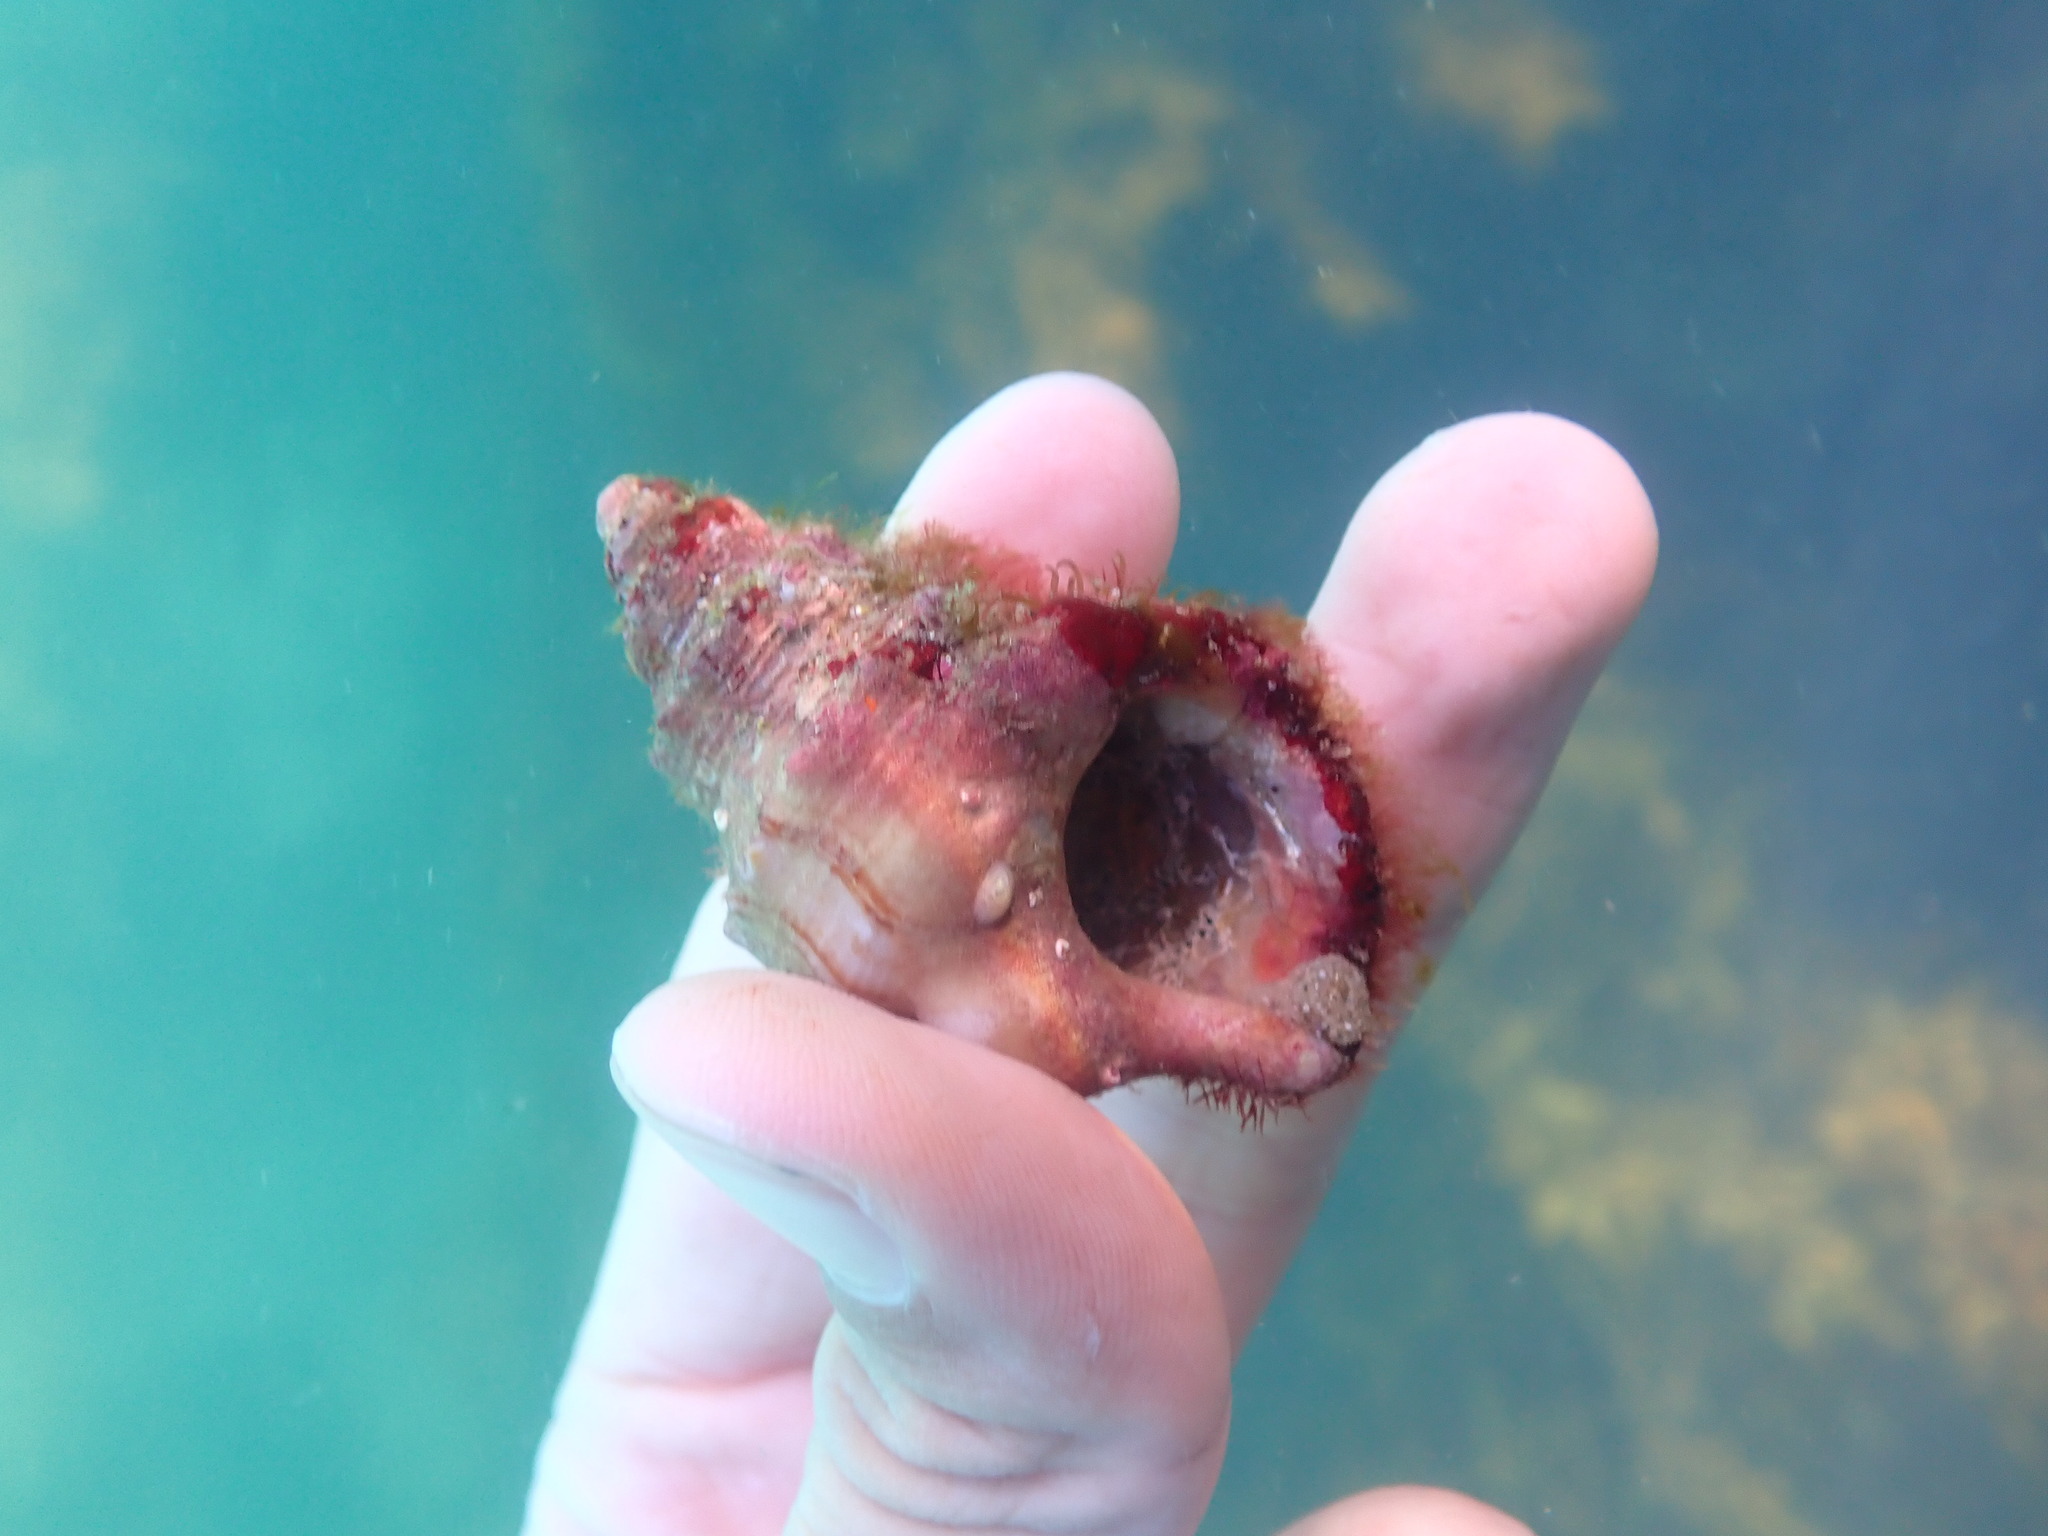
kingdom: Animalia
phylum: Mollusca
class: Gastropoda
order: Littorinimorpha
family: Struthiolariidae
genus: Struthiolaria
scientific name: Struthiolaria papulosa
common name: Large ostrich foot
